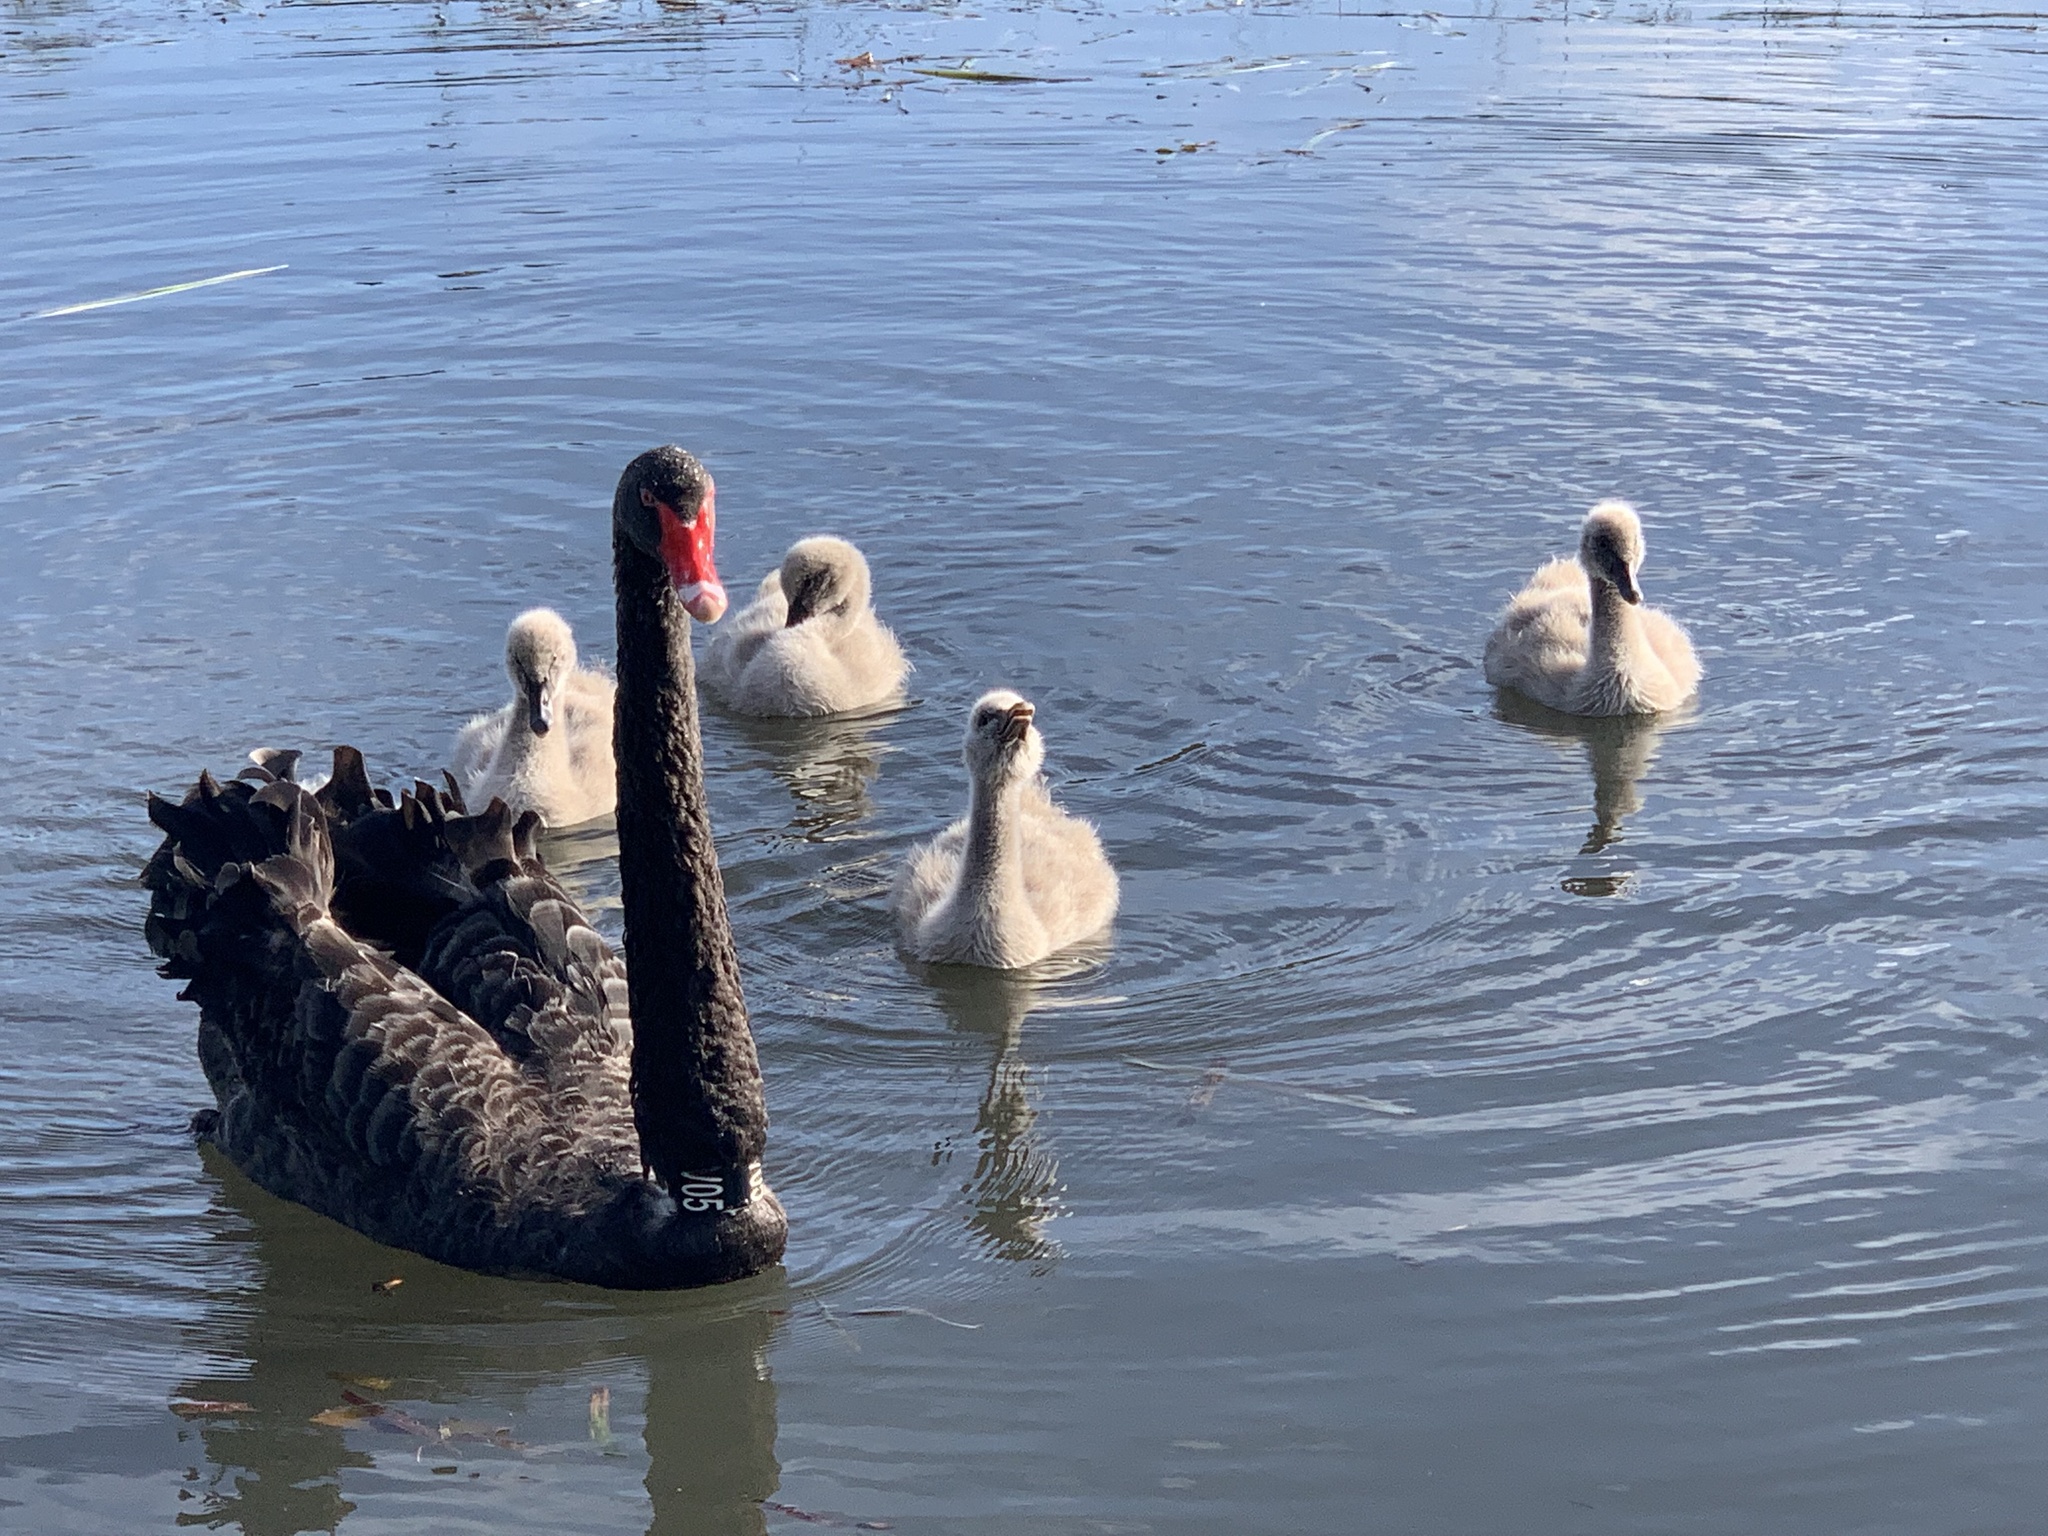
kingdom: Animalia
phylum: Chordata
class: Aves
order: Anseriformes
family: Anatidae
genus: Cygnus
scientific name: Cygnus atratus
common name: Black swan
